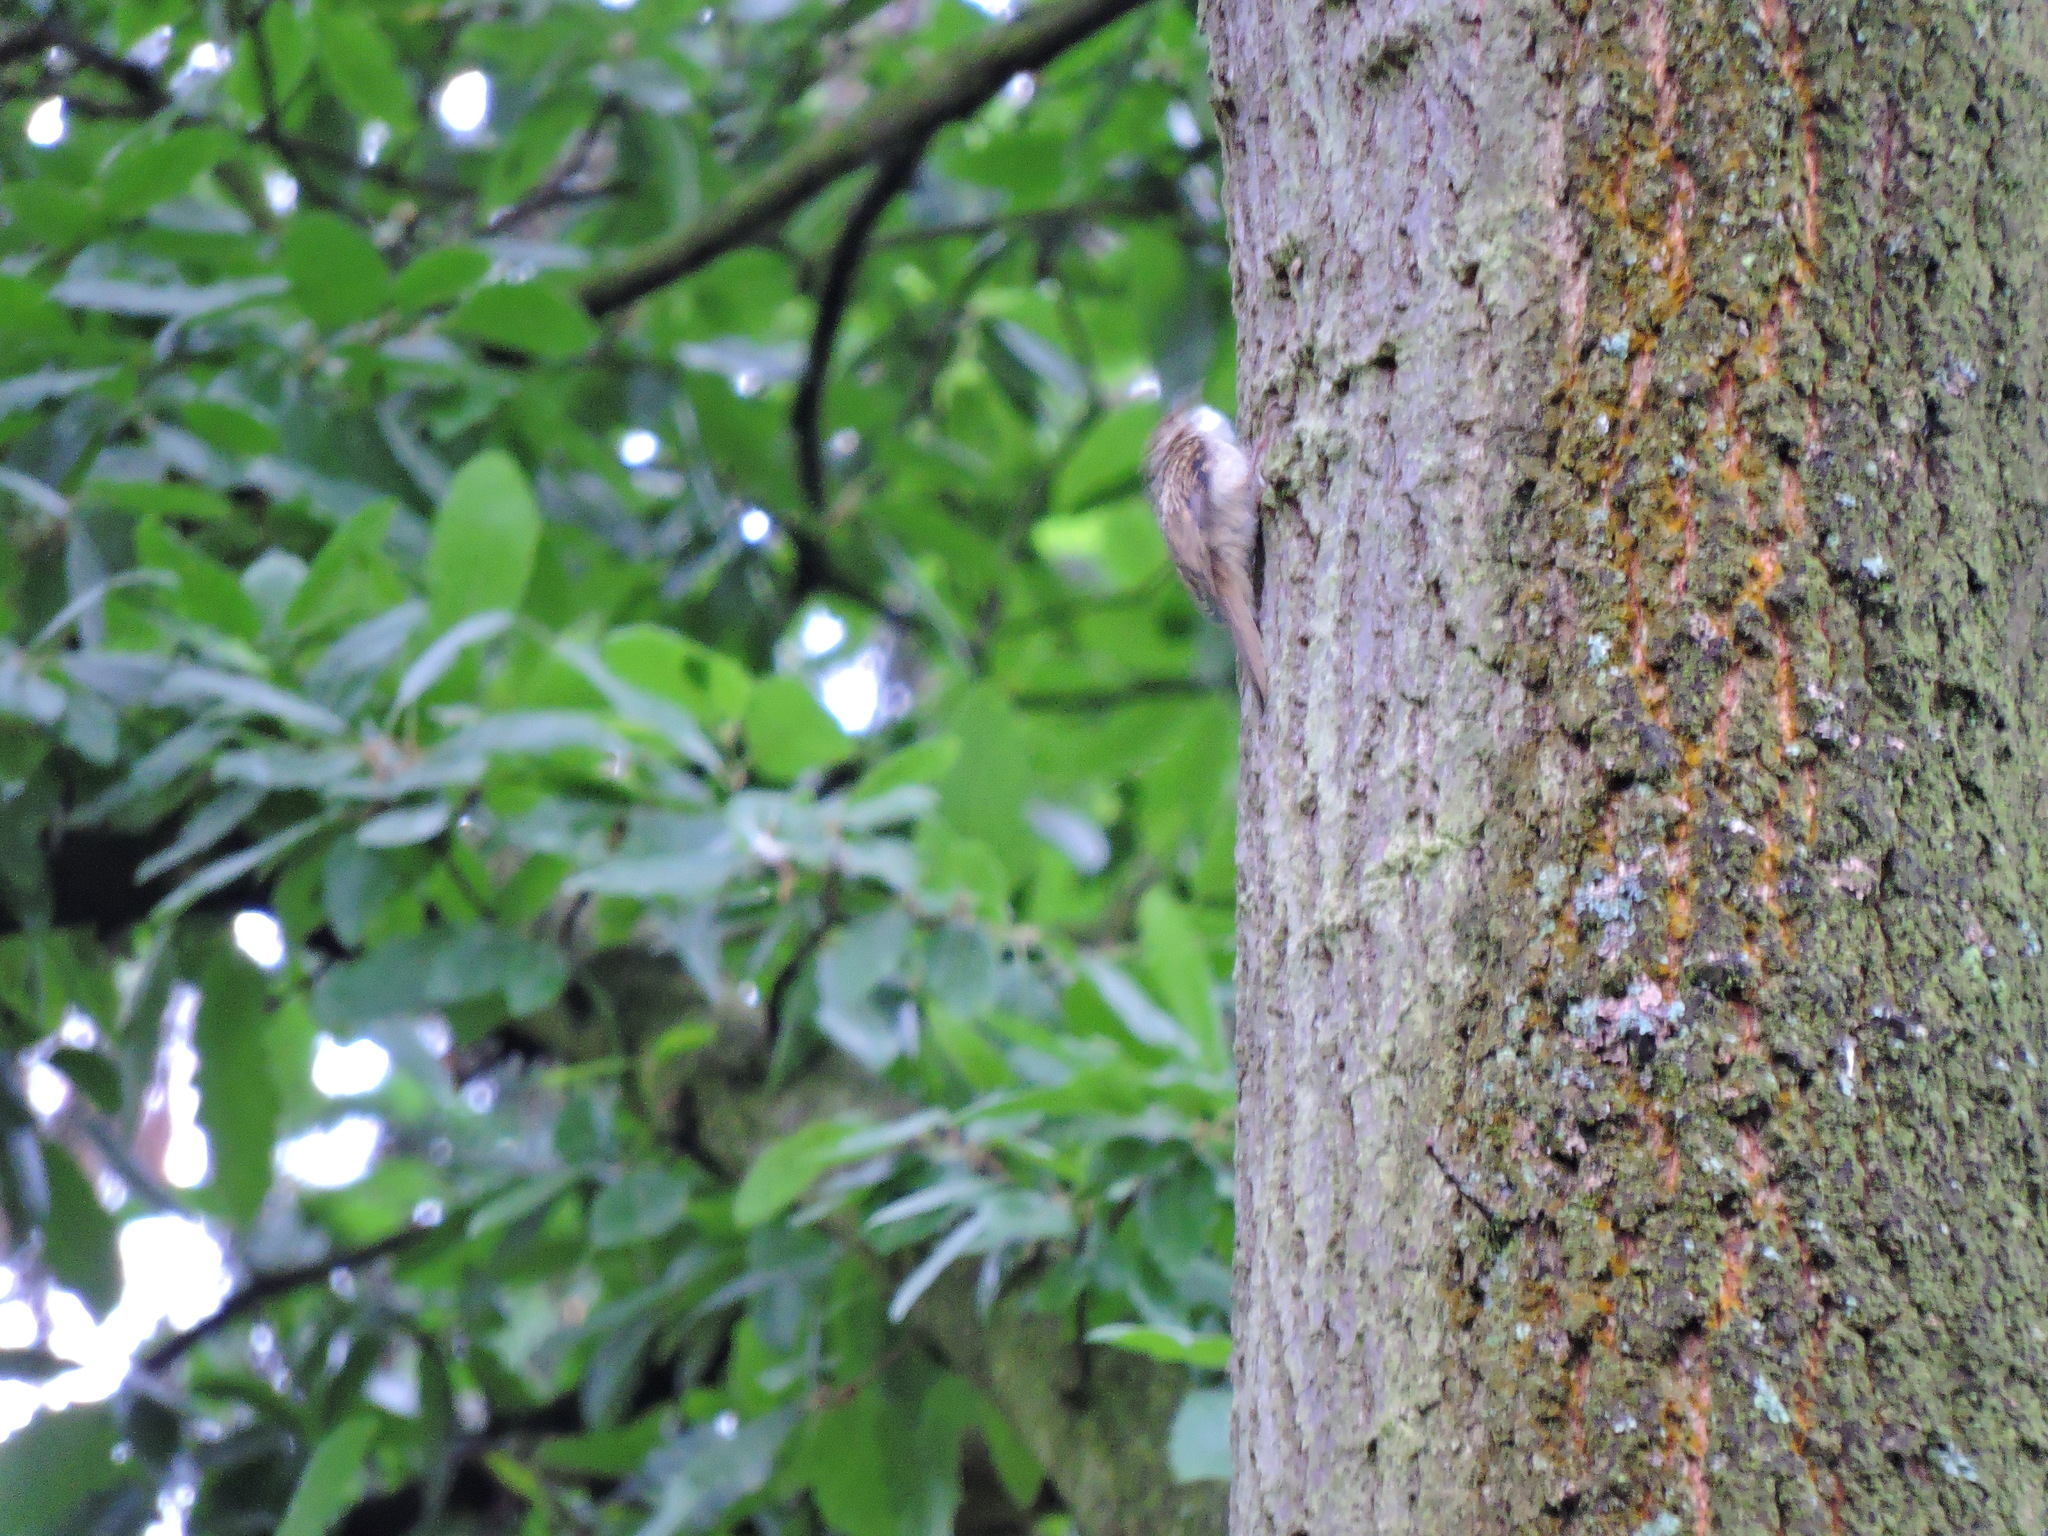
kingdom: Animalia
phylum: Chordata
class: Aves
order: Passeriformes
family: Certhiidae
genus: Certhia
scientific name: Certhia familiaris
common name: Eurasian treecreeper
